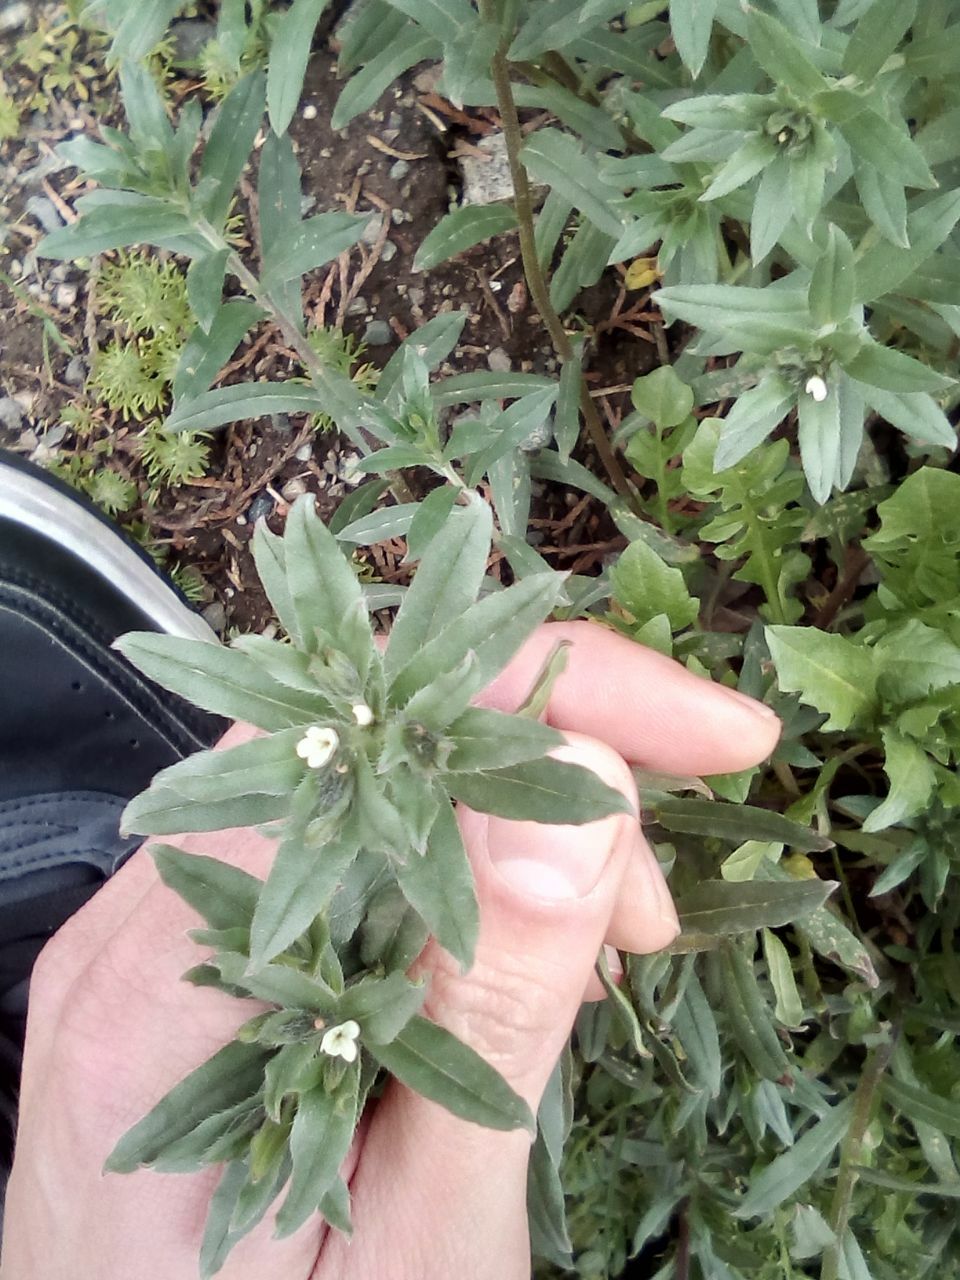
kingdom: Plantae
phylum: Tracheophyta
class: Magnoliopsida
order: Boraginales
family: Boraginaceae
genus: Buglossoides
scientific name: Buglossoides arvensis
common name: Corn gromwell
